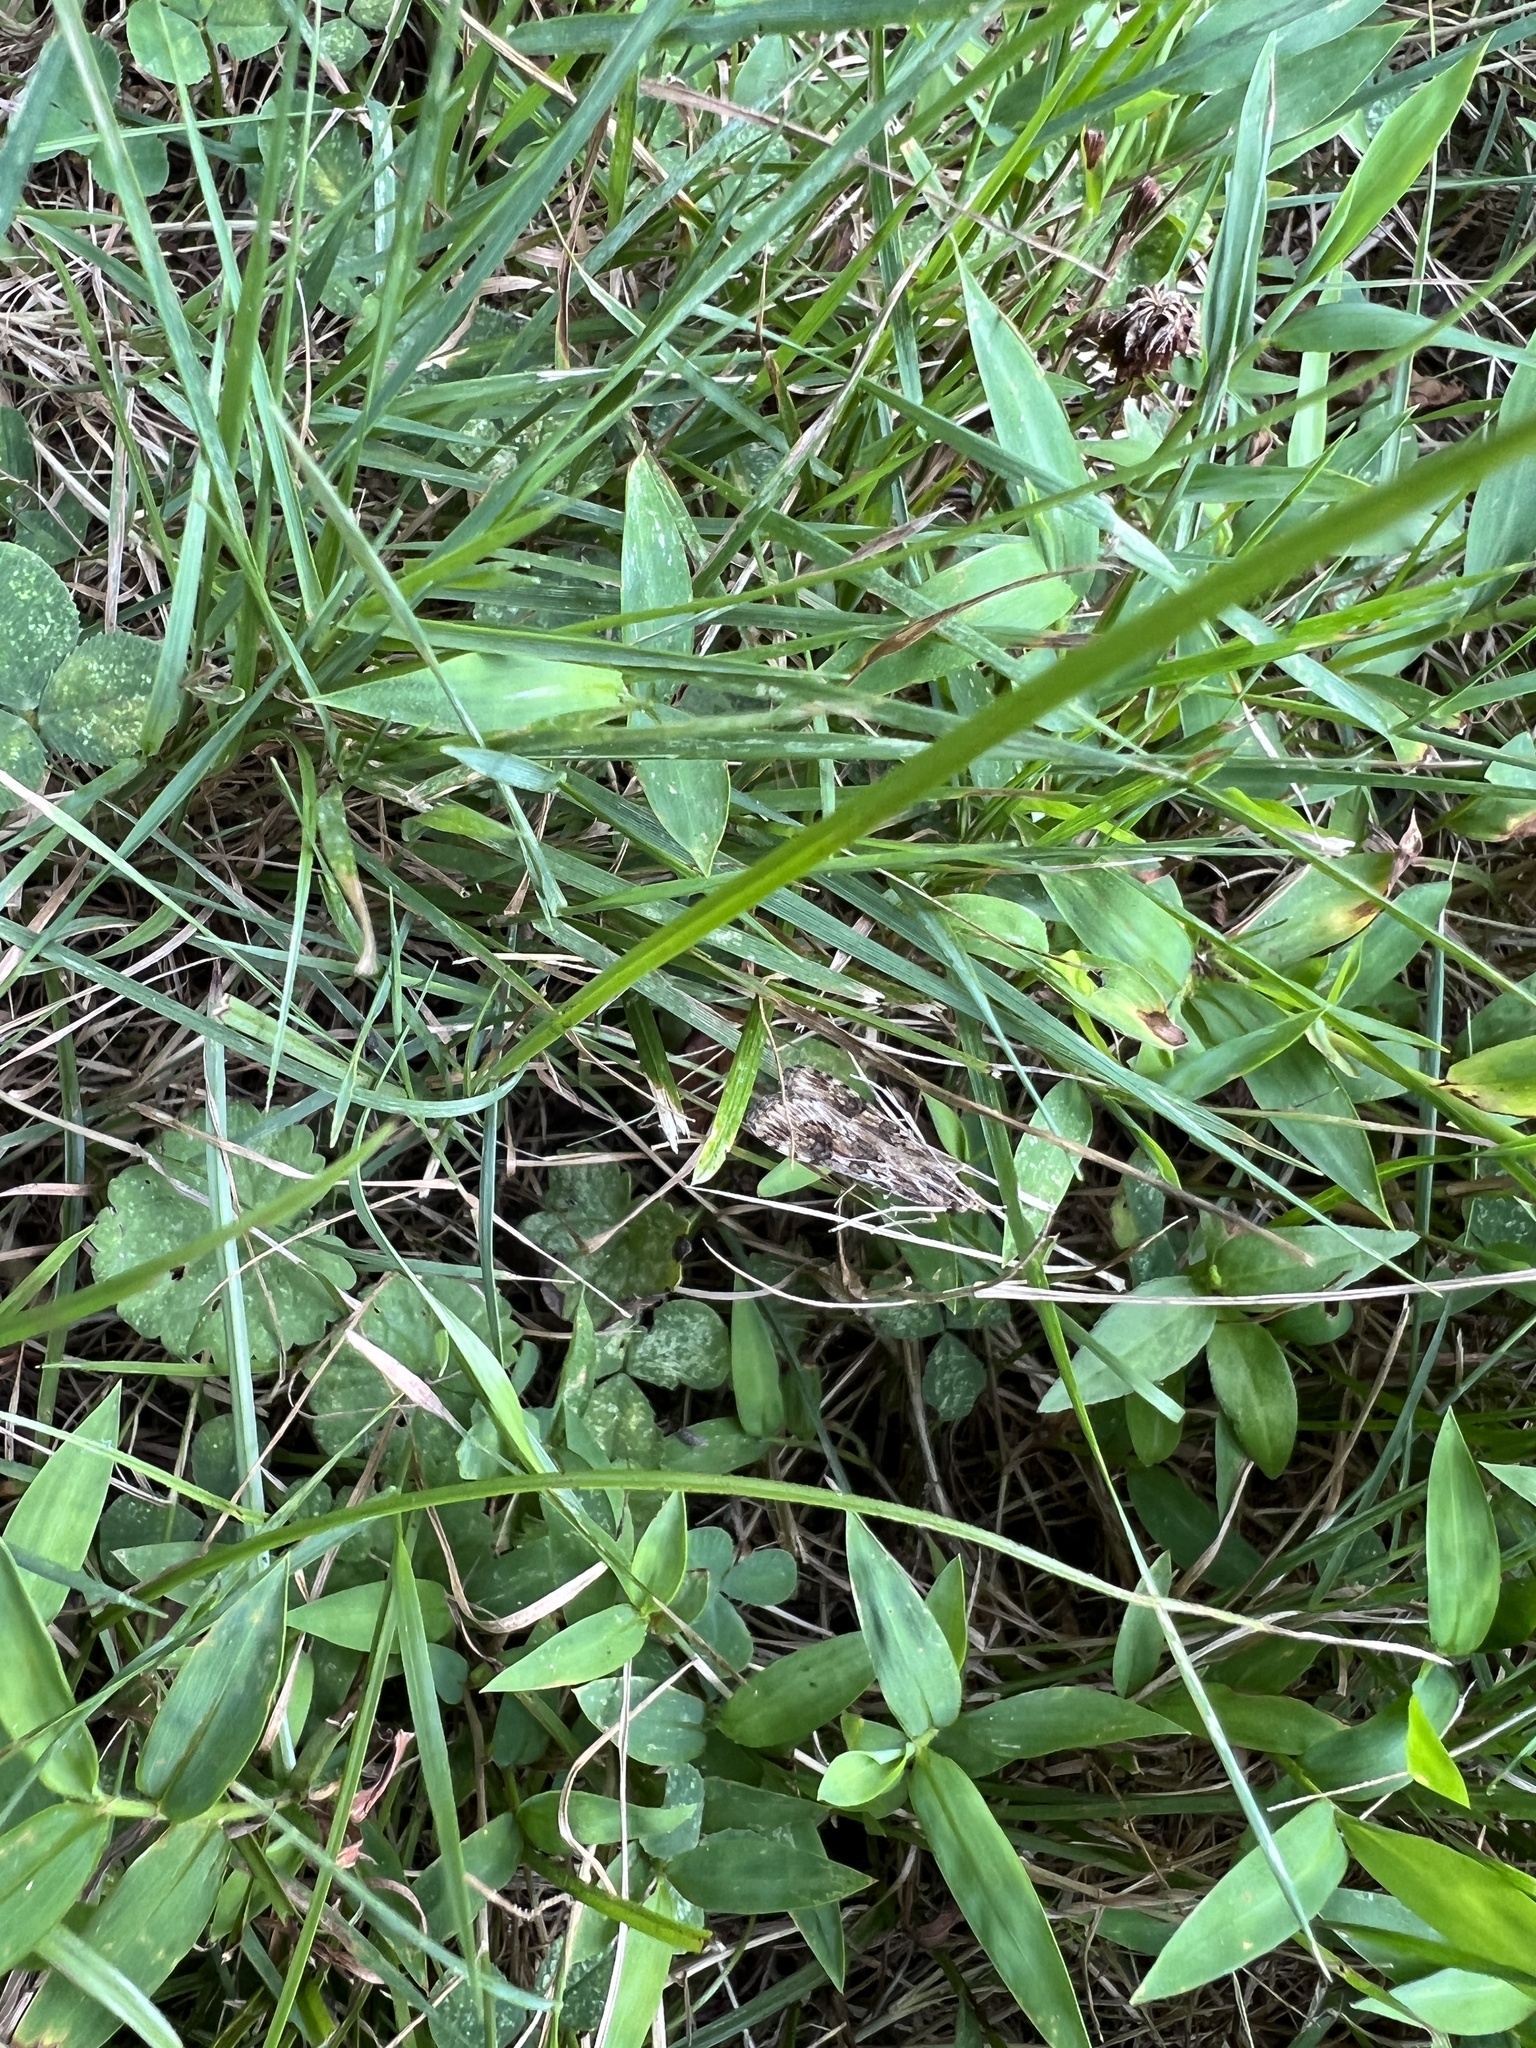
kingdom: Animalia
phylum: Arthropoda
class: Insecta
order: Lepidoptera
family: Crambidae
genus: Nomophila
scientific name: Nomophila nearctica
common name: American rush veneer
